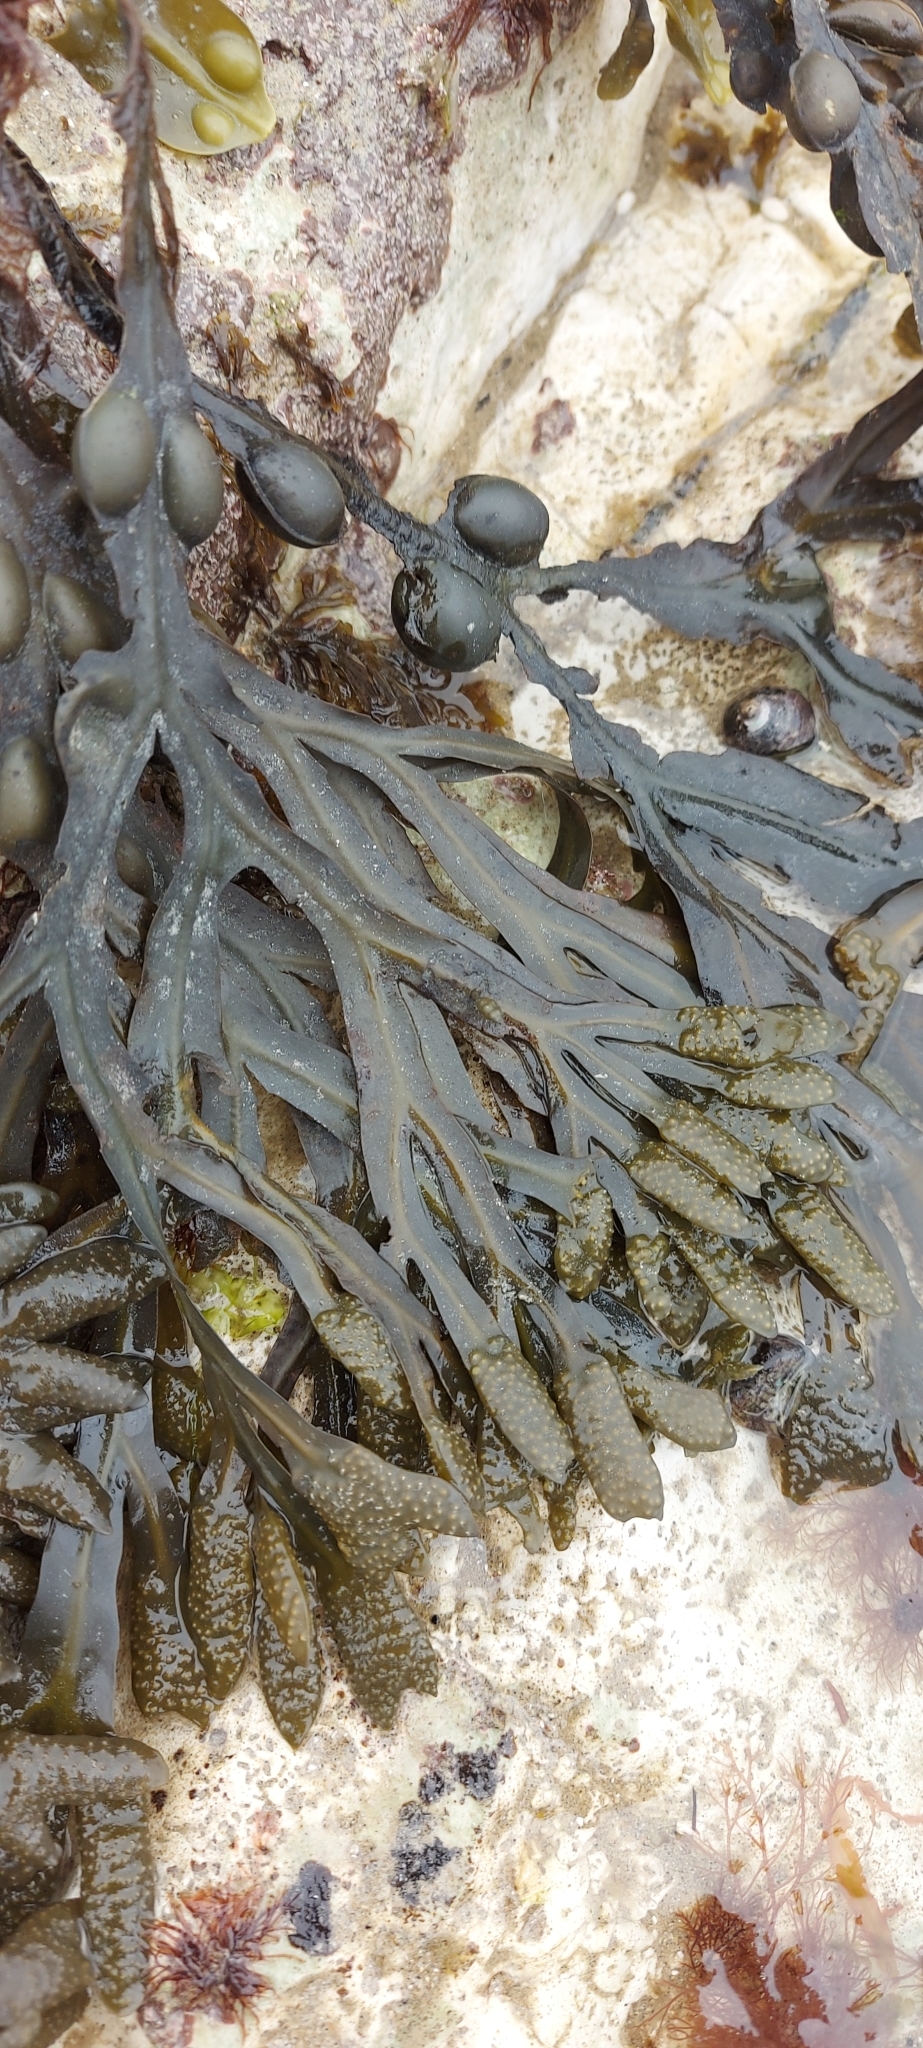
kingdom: Chromista
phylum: Ochrophyta
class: Phaeophyceae
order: Fucales
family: Fucaceae
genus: Fucus
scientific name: Fucus vesiculosus
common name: Bladder wrack
